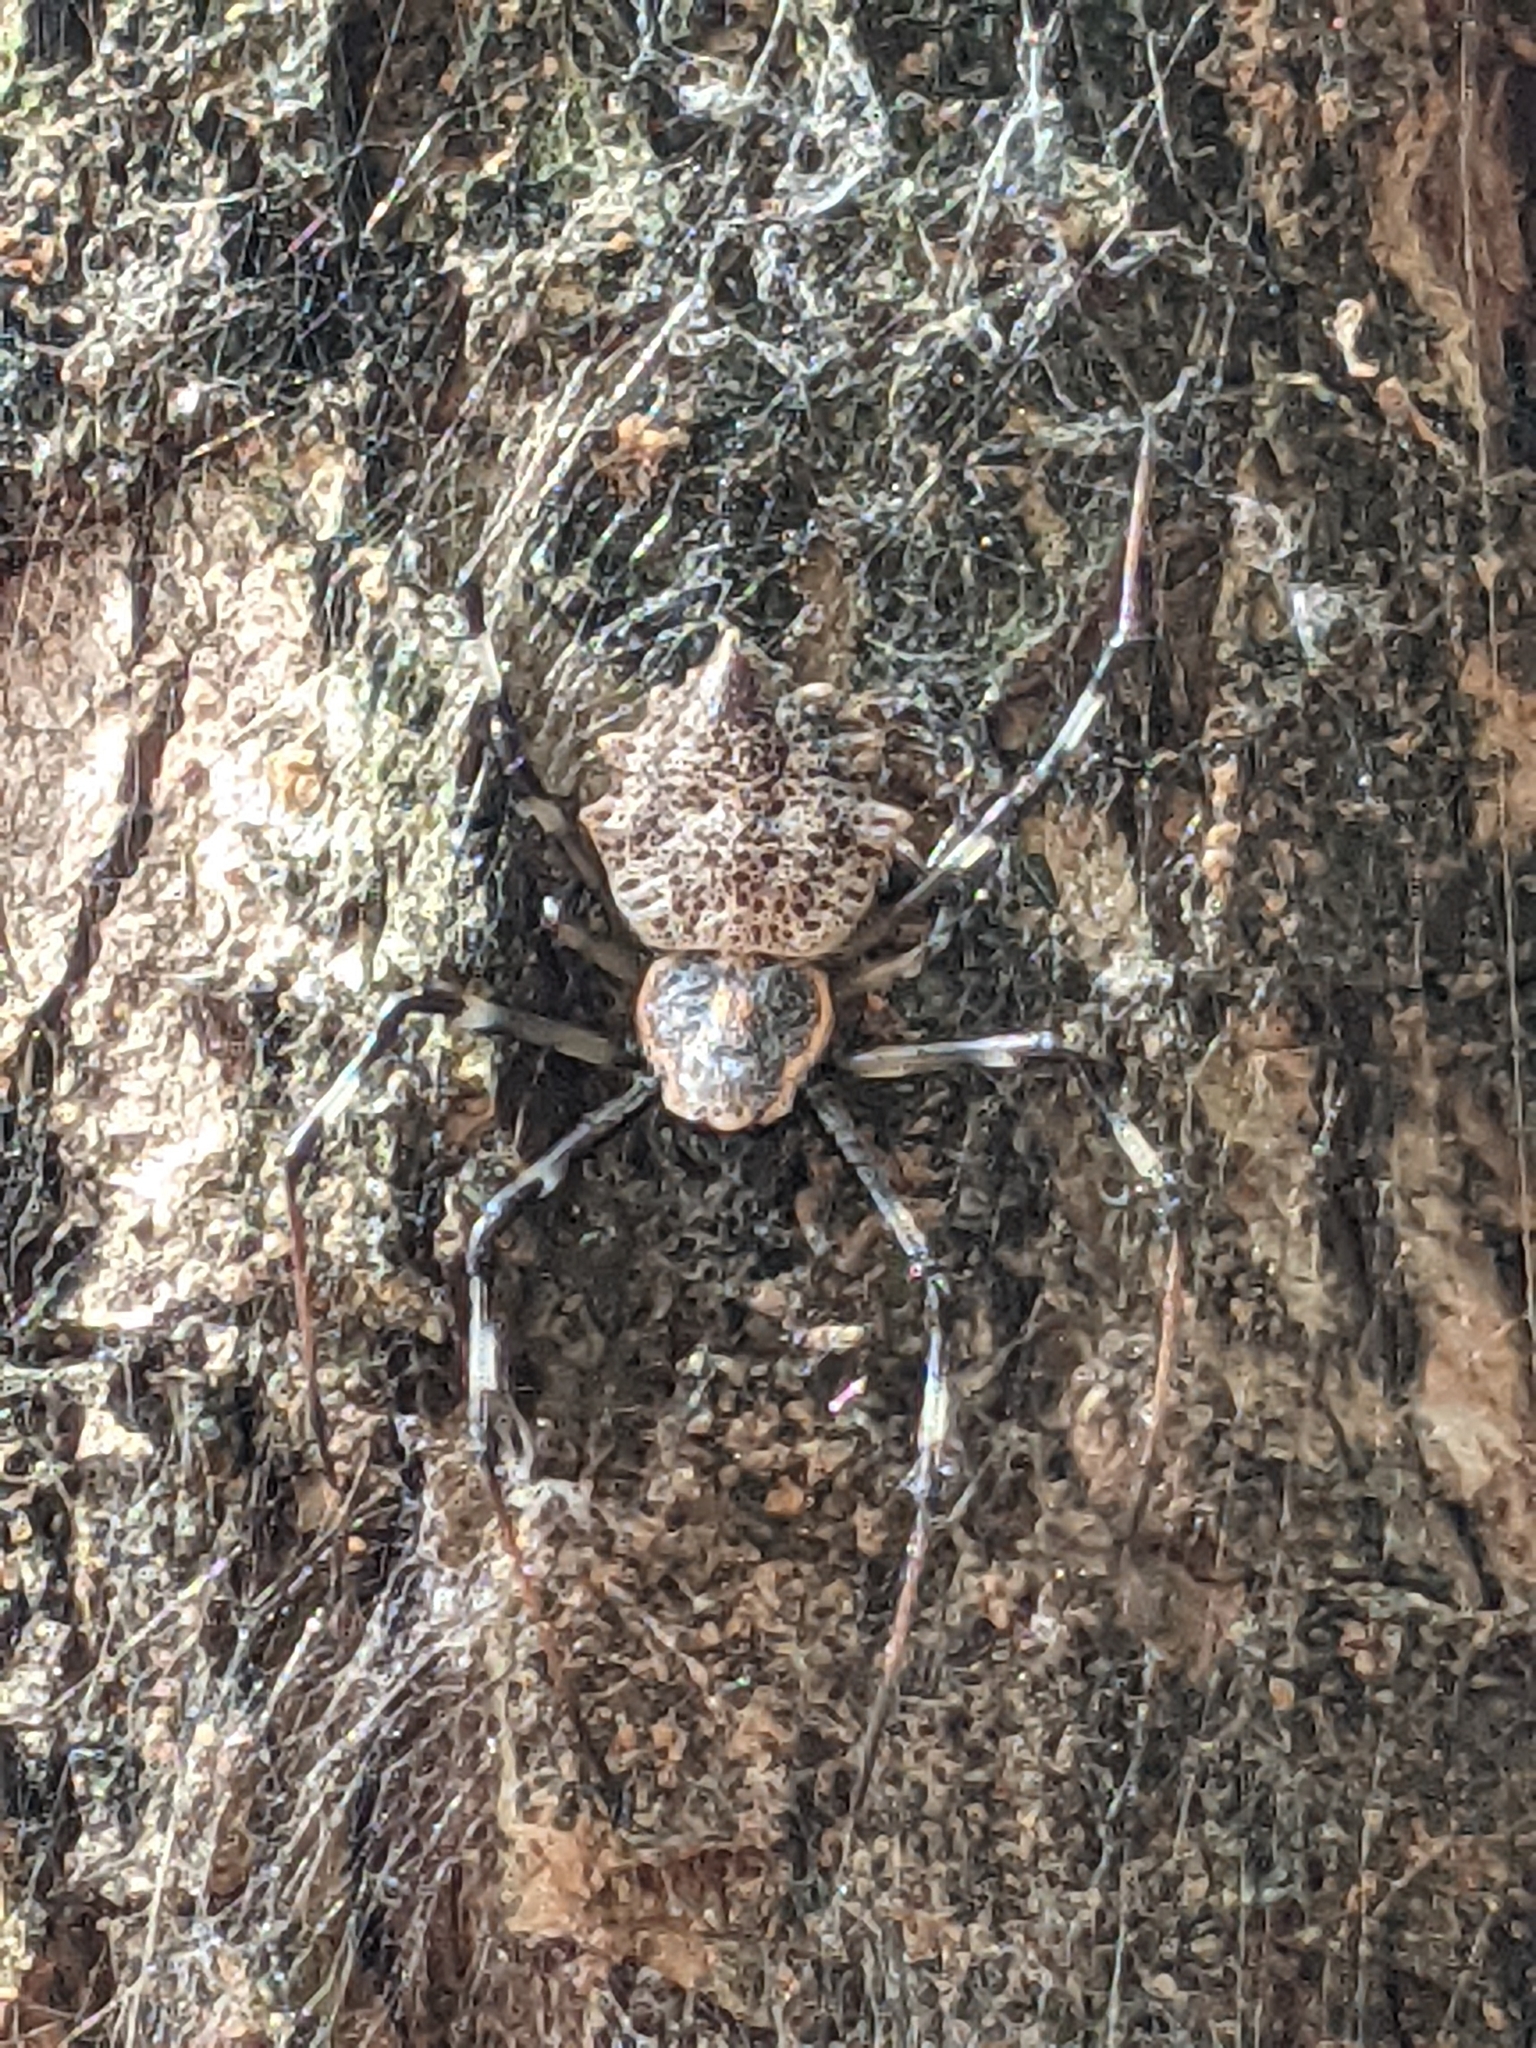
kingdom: Animalia
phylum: Arthropoda
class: Arachnida
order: Araneae
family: Araneidae
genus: Herennia
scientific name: Herennia multipuncta
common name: Spotted coin spider
